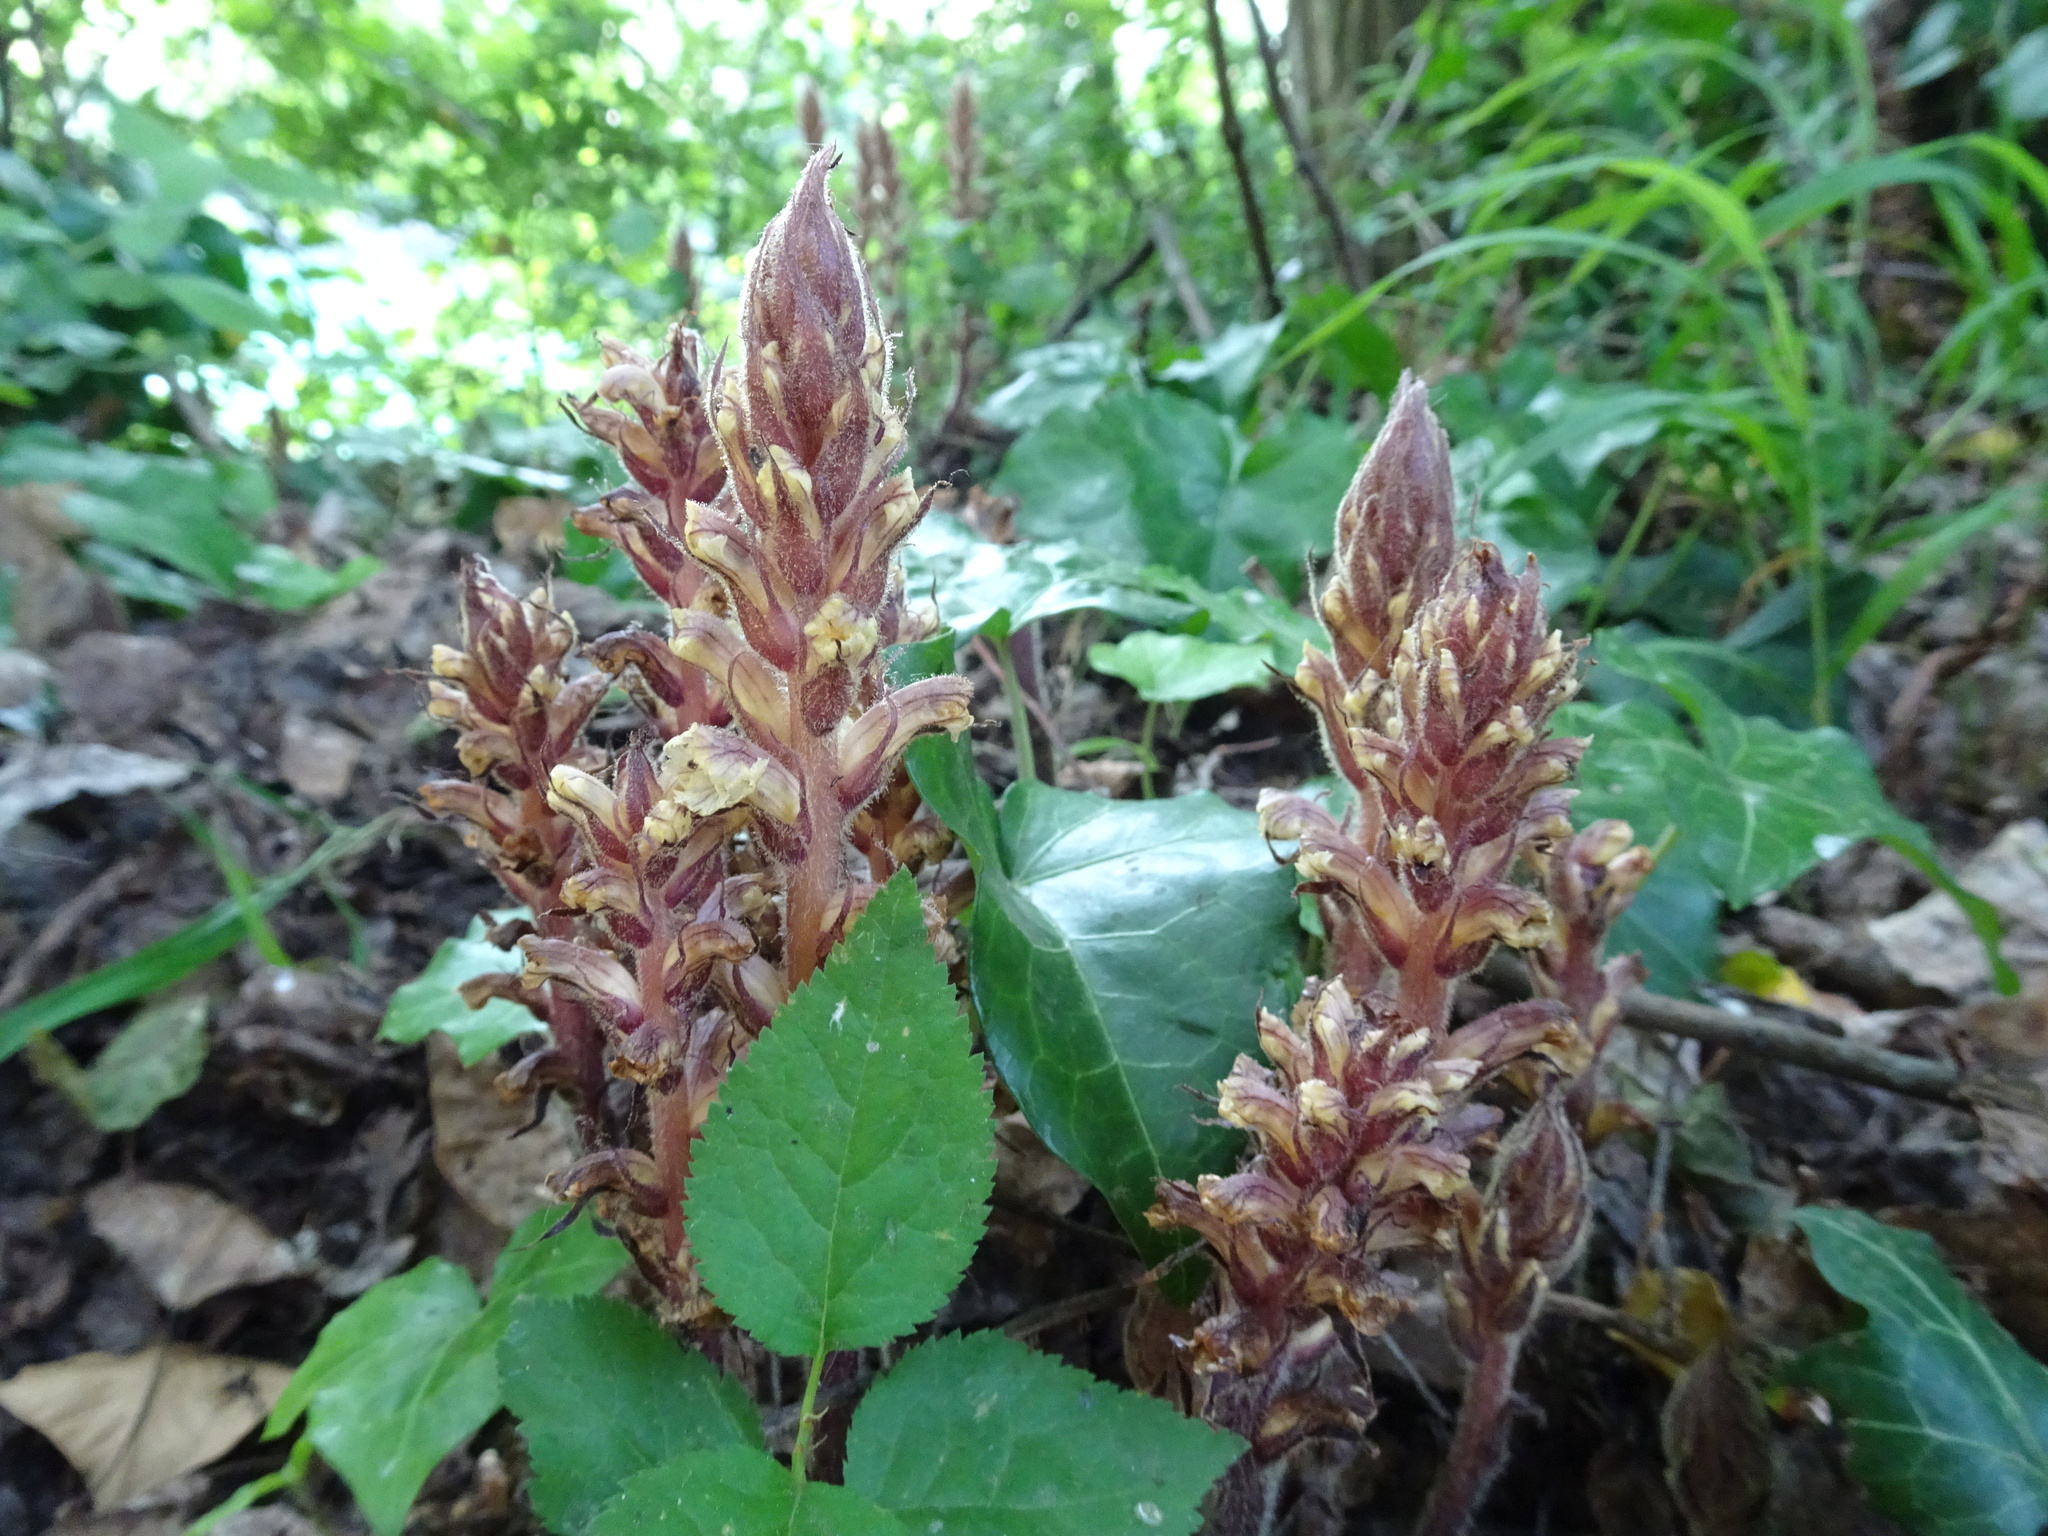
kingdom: Plantae
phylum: Tracheophyta
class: Magnoliopsida
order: Lamiales
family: Orobanchaceae
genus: Orobanche
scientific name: Orobanche hederae
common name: Ivy broomrape
